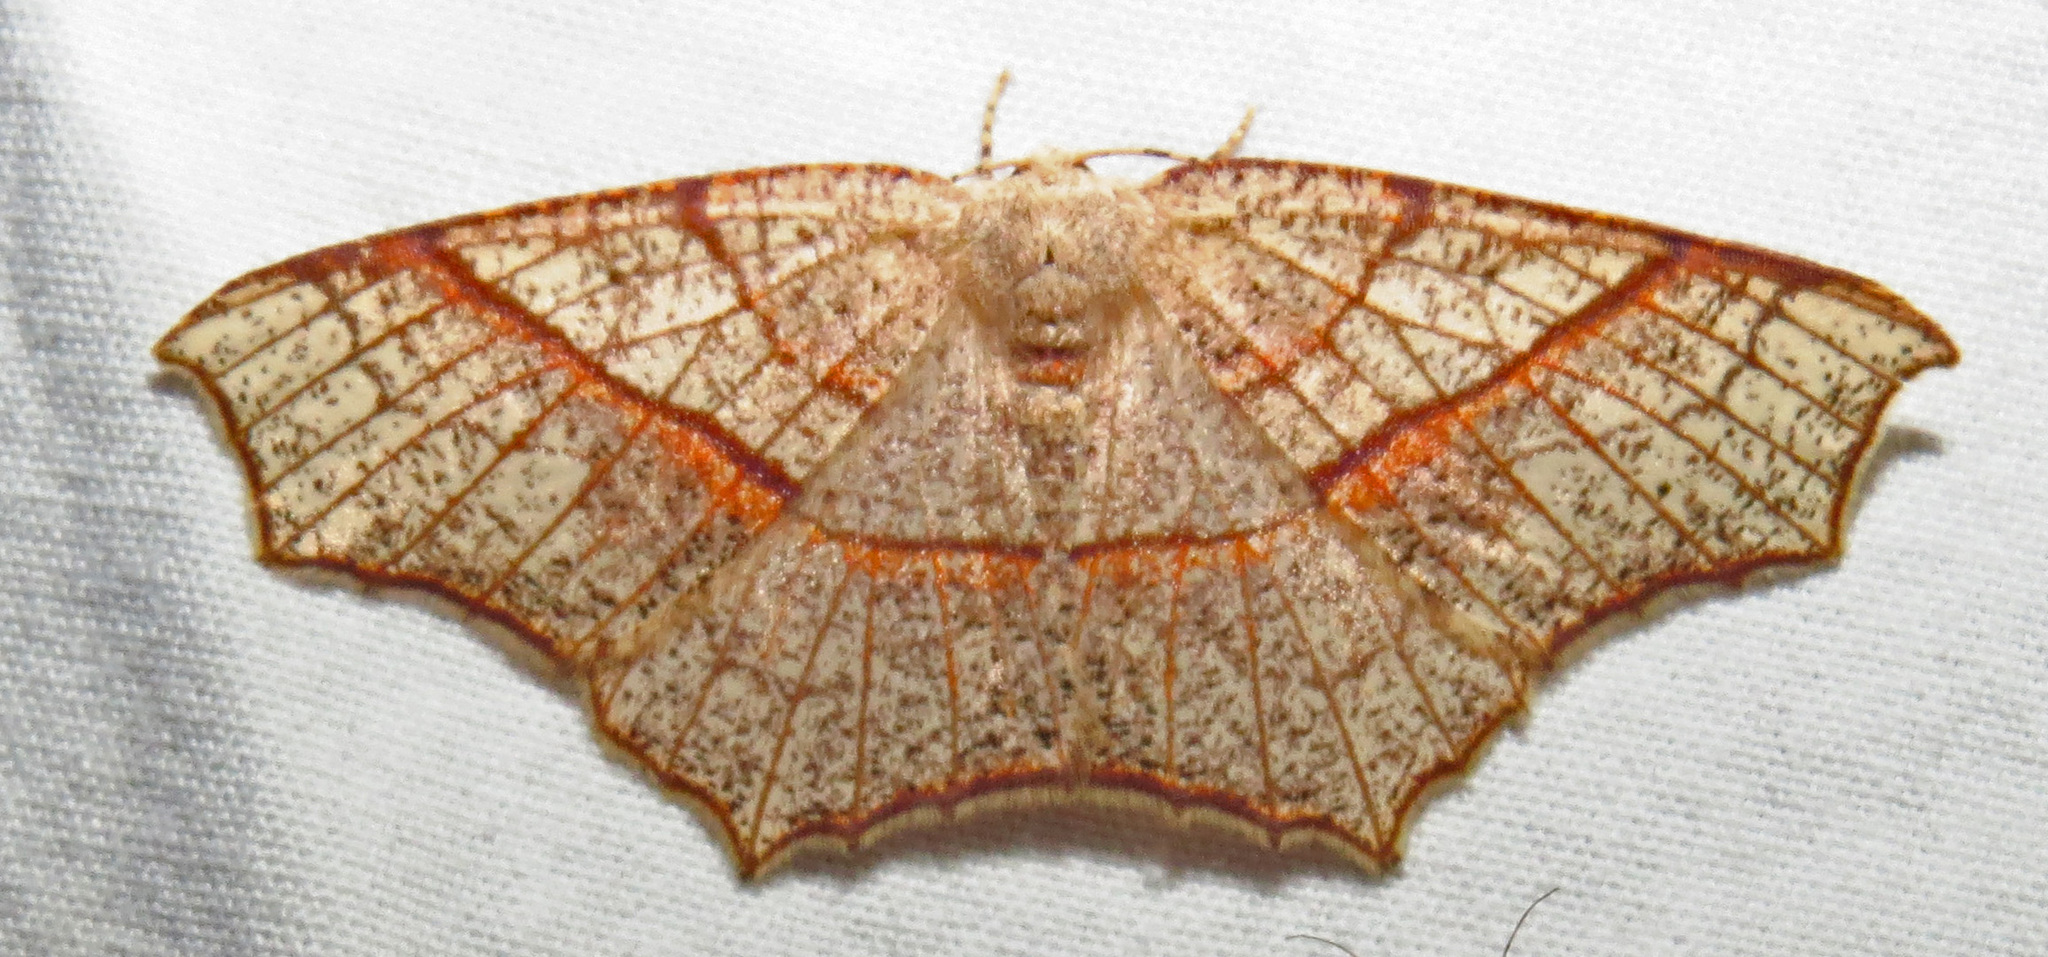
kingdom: Animalia
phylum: Arthropoda
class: Insecta
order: Lepidoptera
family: Geometridae
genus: Besma
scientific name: Besma quercivoraria
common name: Oak besma
